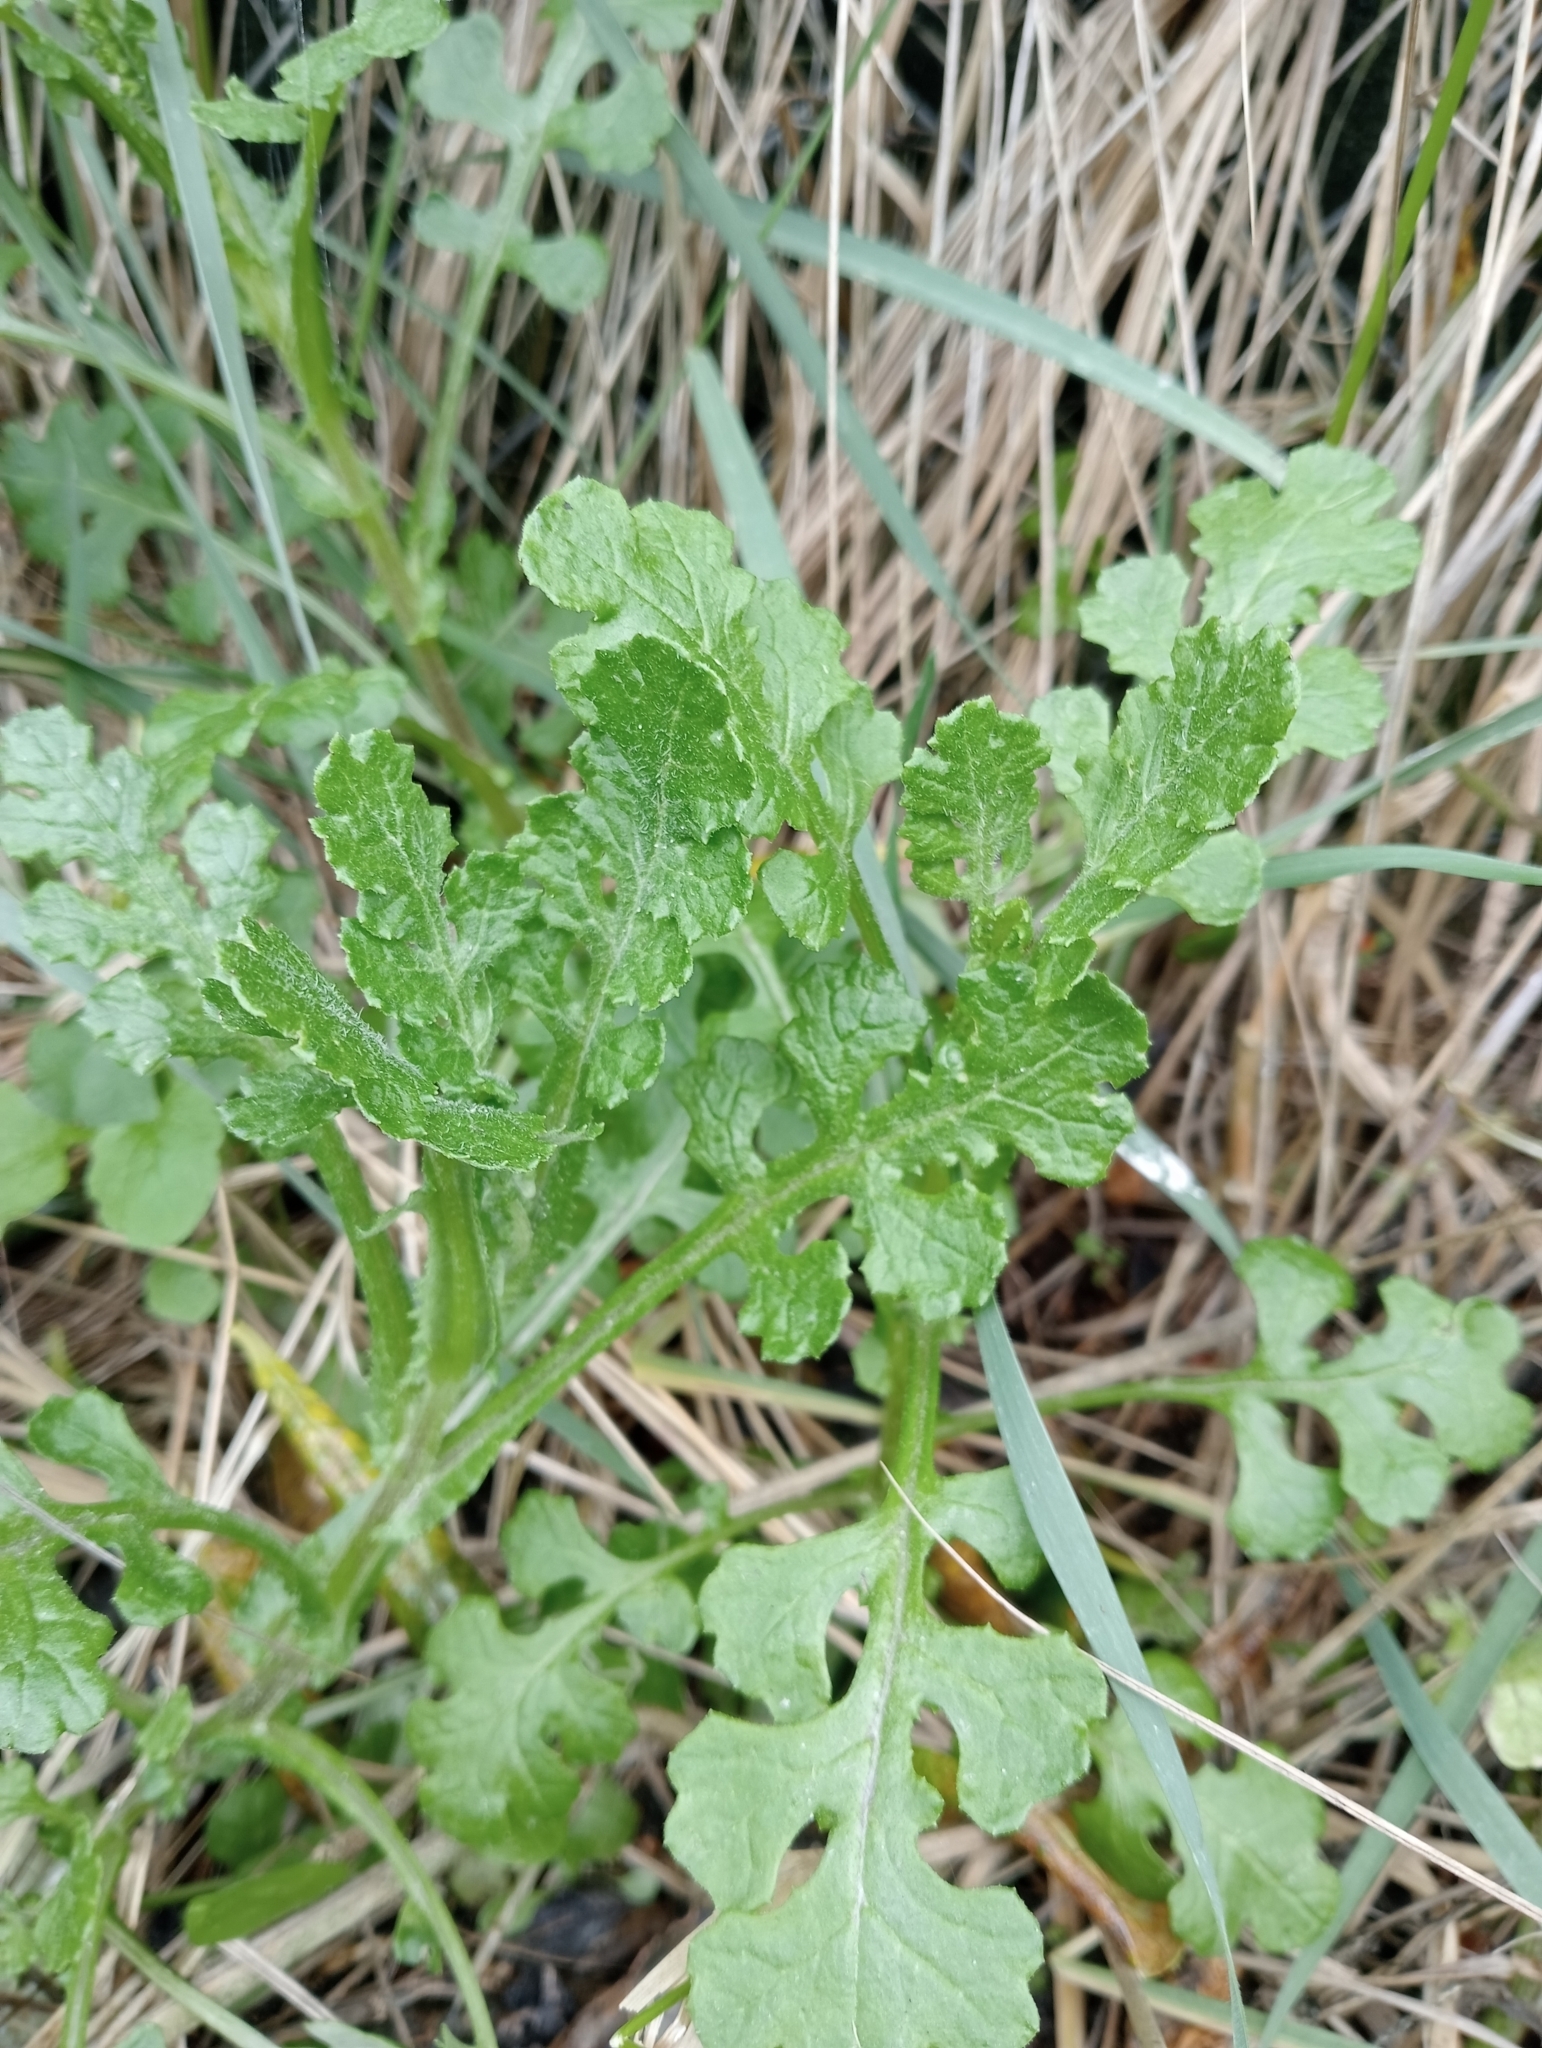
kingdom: Plantae
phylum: Tracheophyta
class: Magnoliopsida
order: Asterales
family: Asteraceae
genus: Senecio
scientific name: Senecio glomeratus
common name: Cutleaf burnweed
